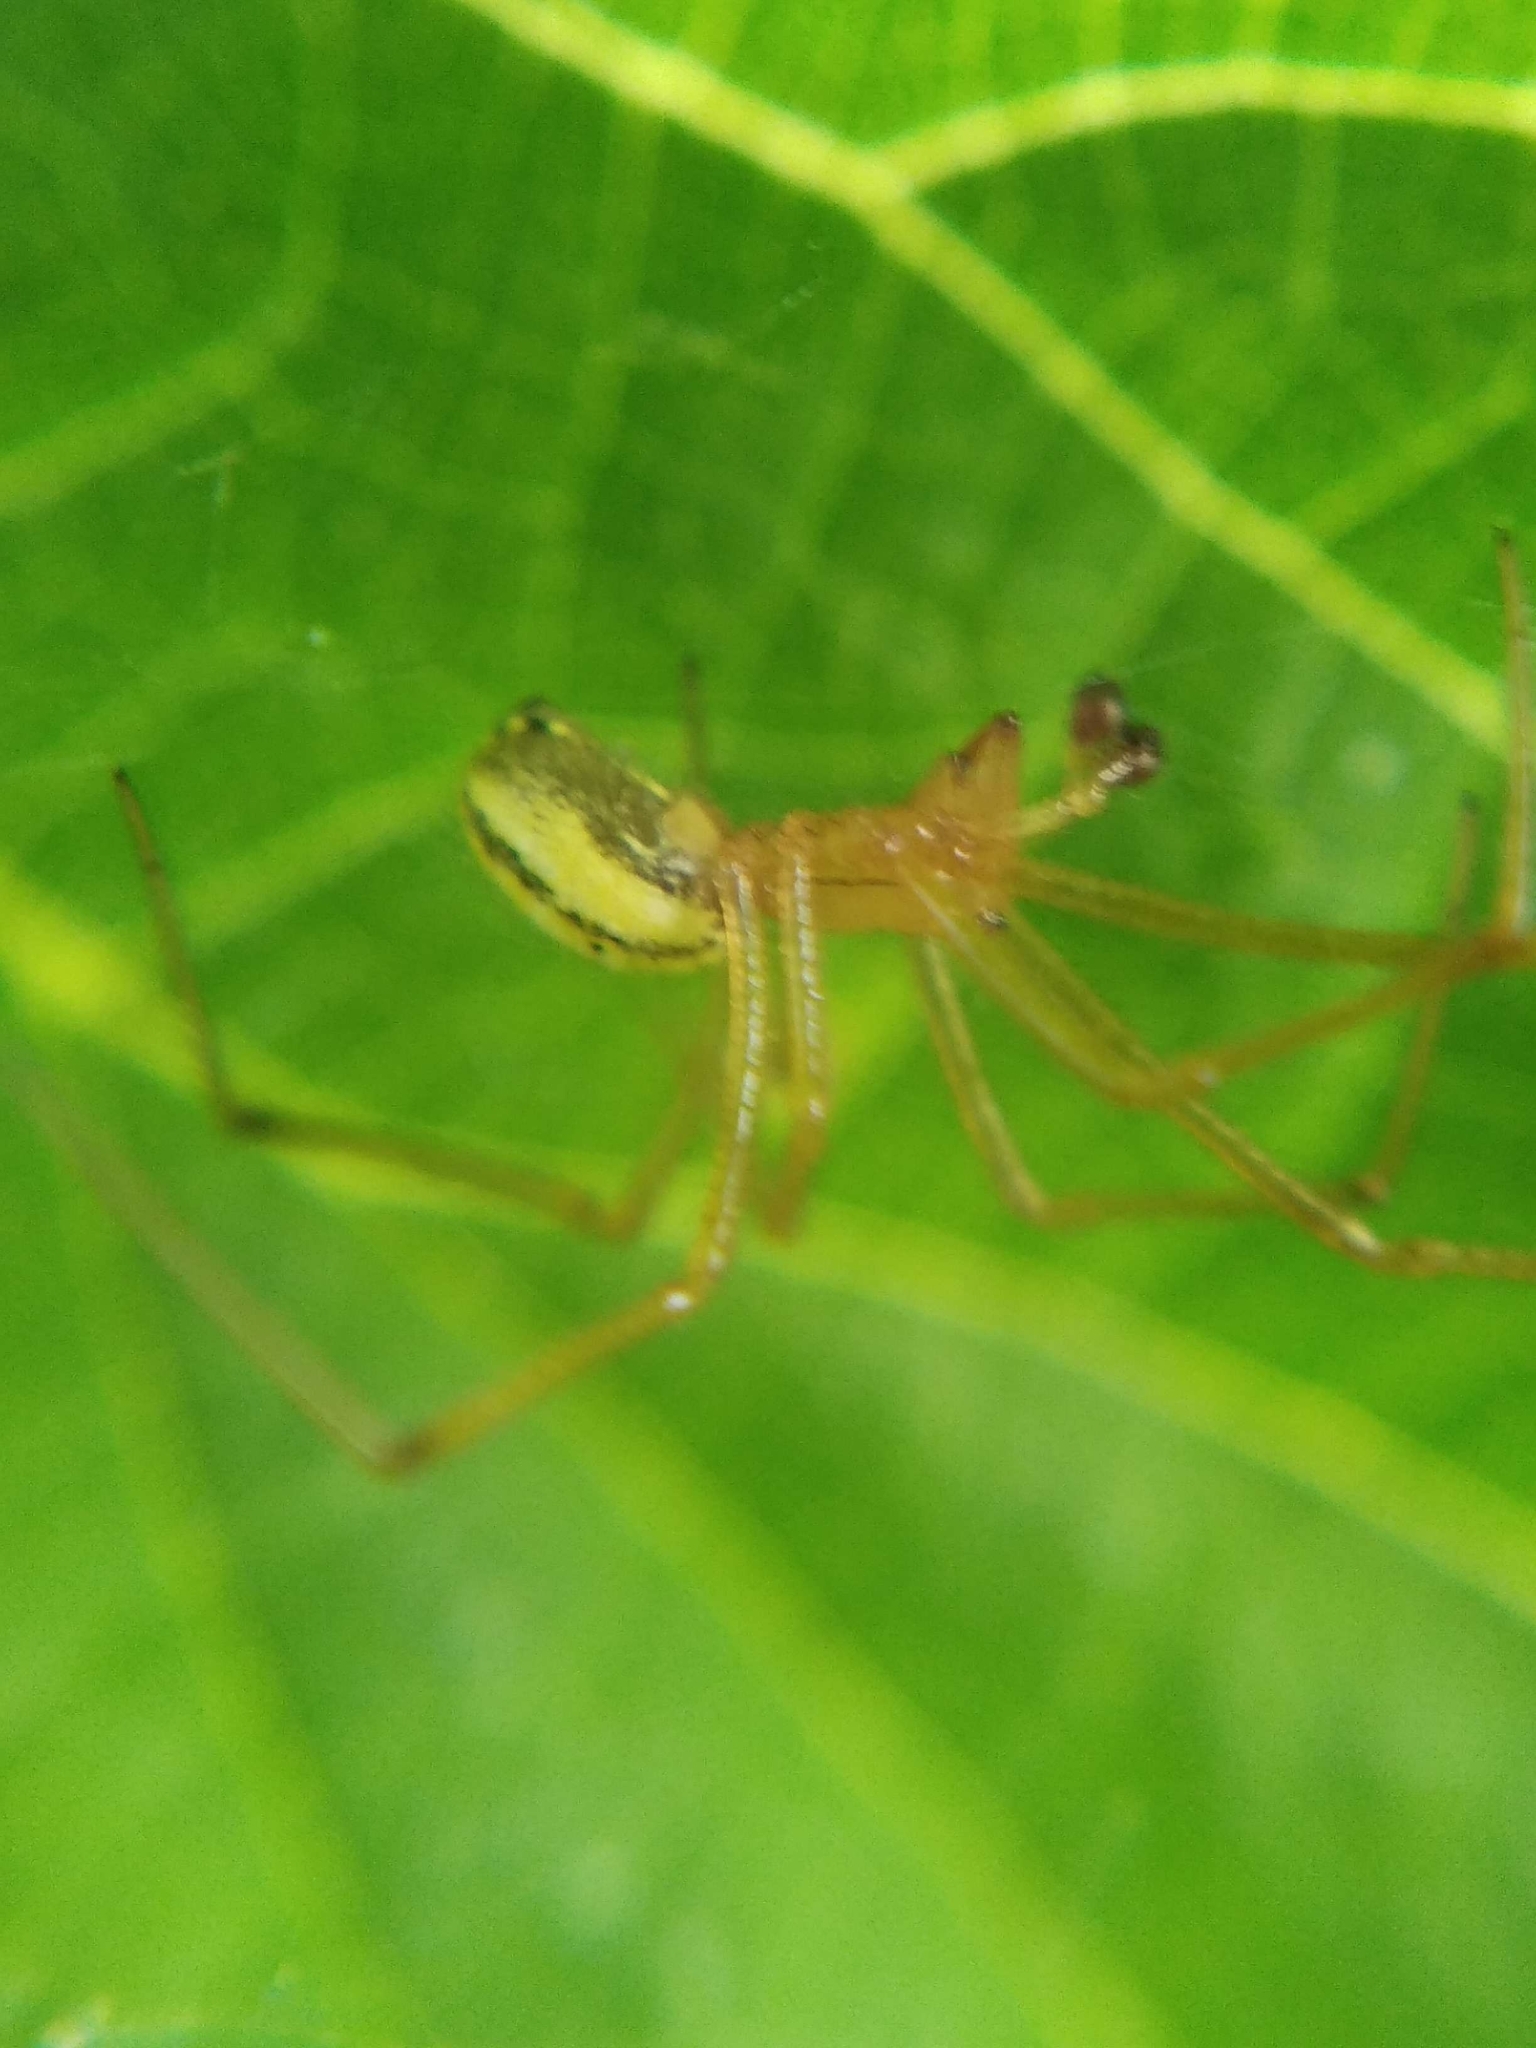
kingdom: Animalia
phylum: Arthropoda
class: Arachnida
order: Araneae
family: Theridiidae
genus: Enoplognatha
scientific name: Enoplognatha ovata
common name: Common candy-striped spider
